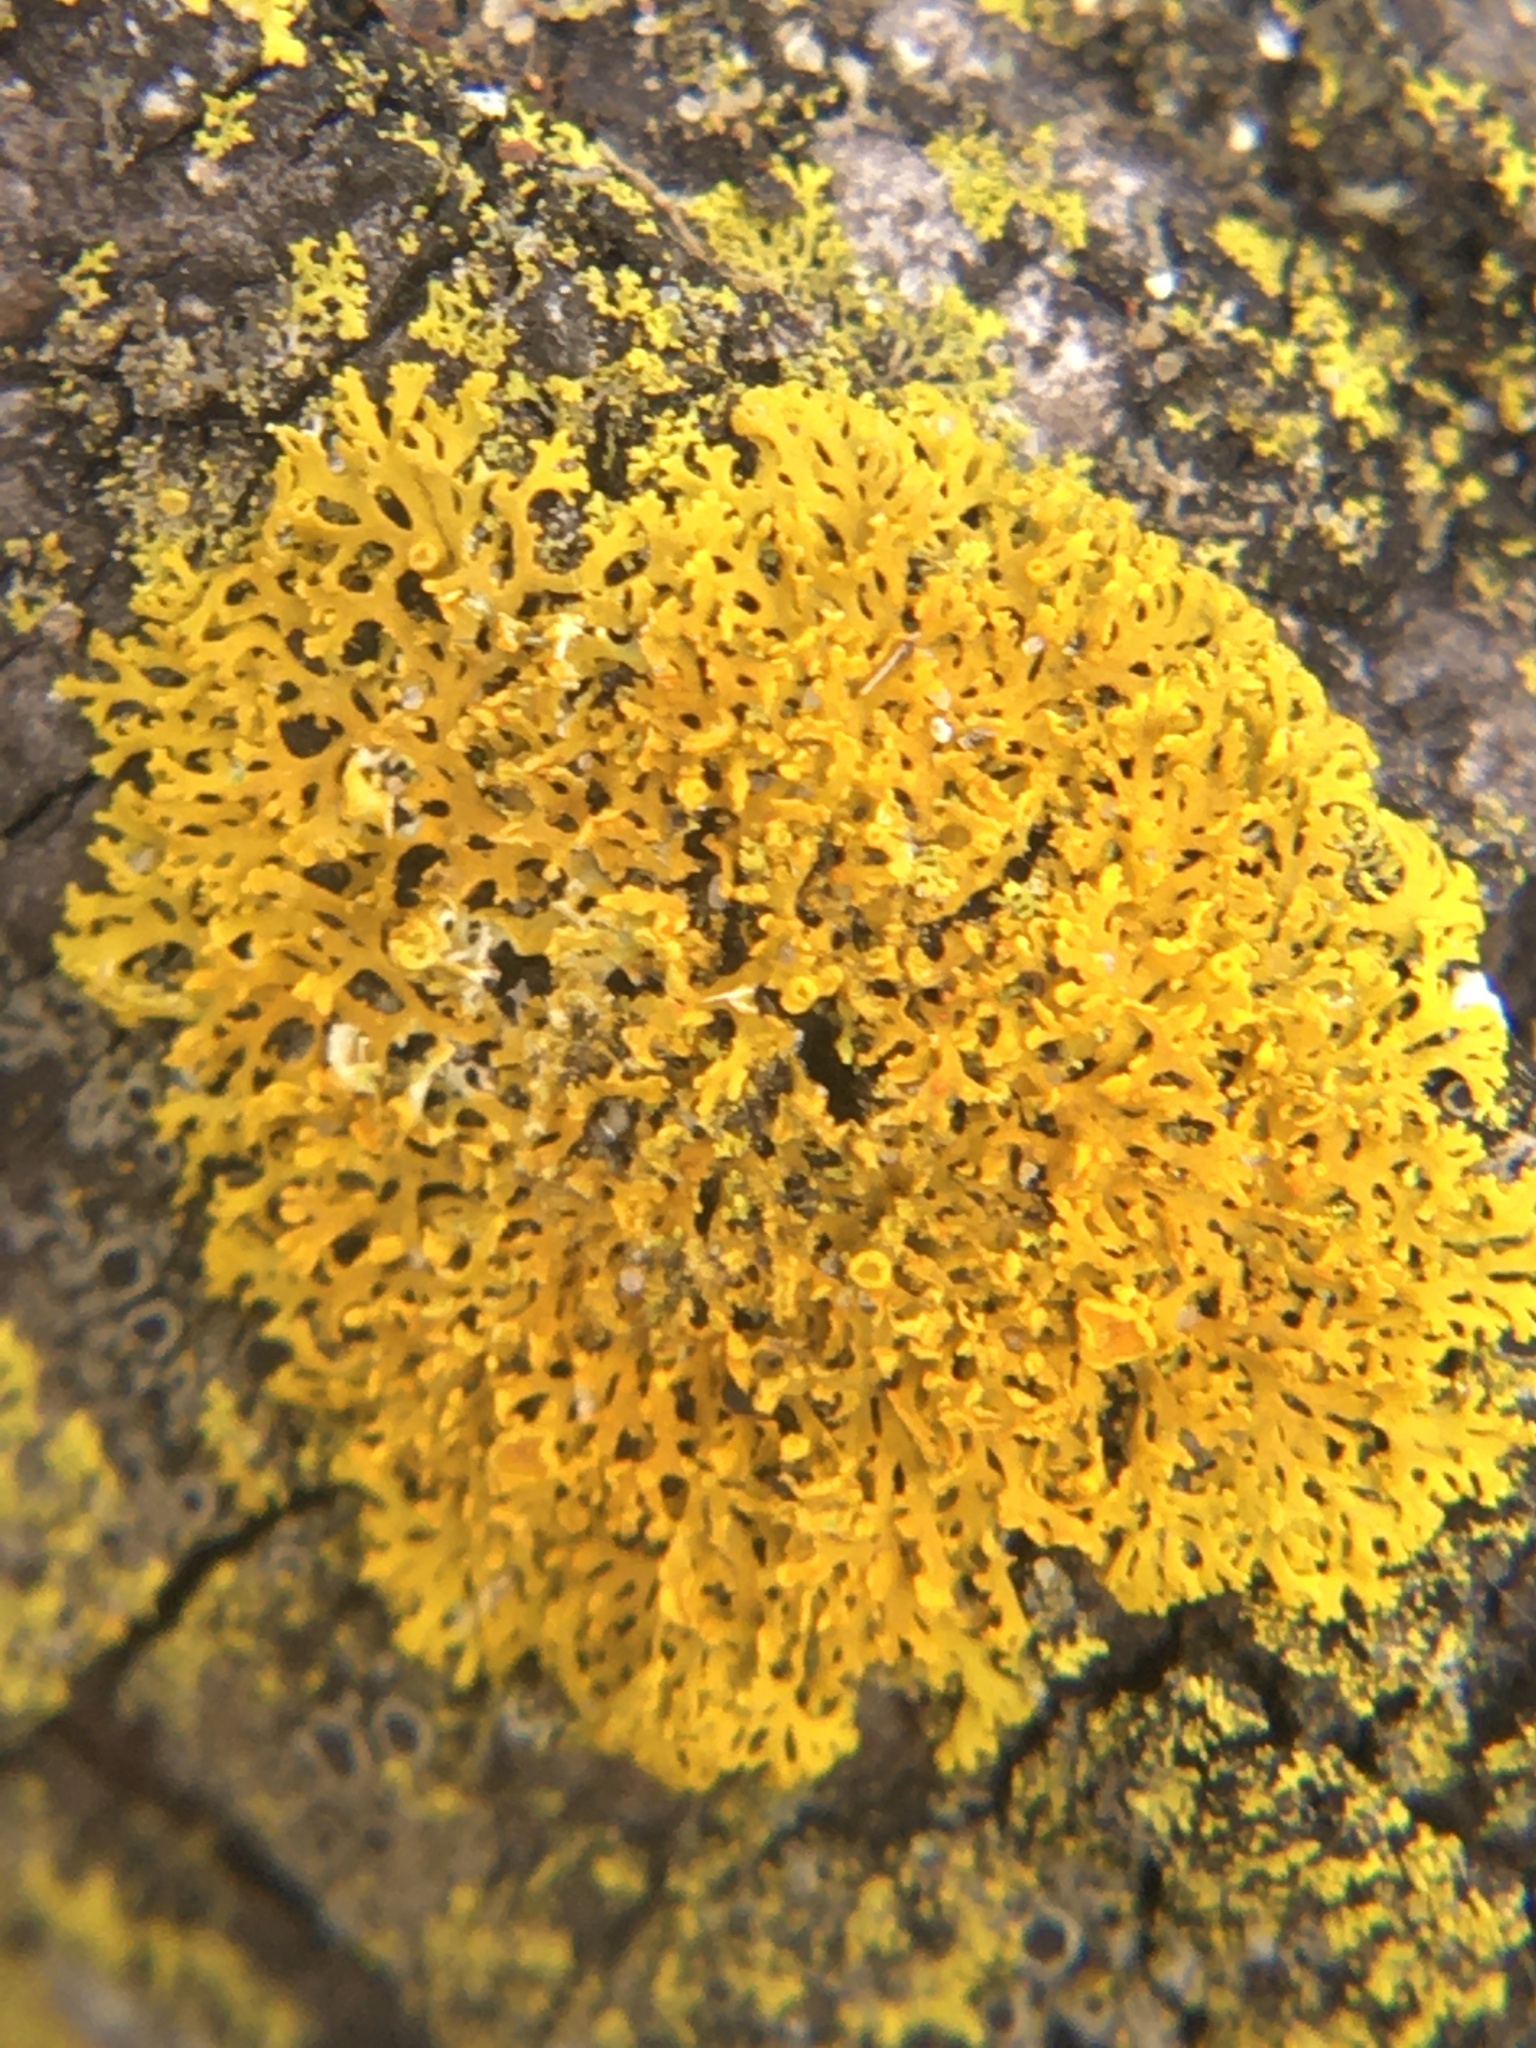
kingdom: Fungi
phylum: Ascomycota
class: Lecanoromycetes
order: Teloschistales
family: Teloschistaceae
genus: Gallowayella
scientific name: Gallowayella weberi
